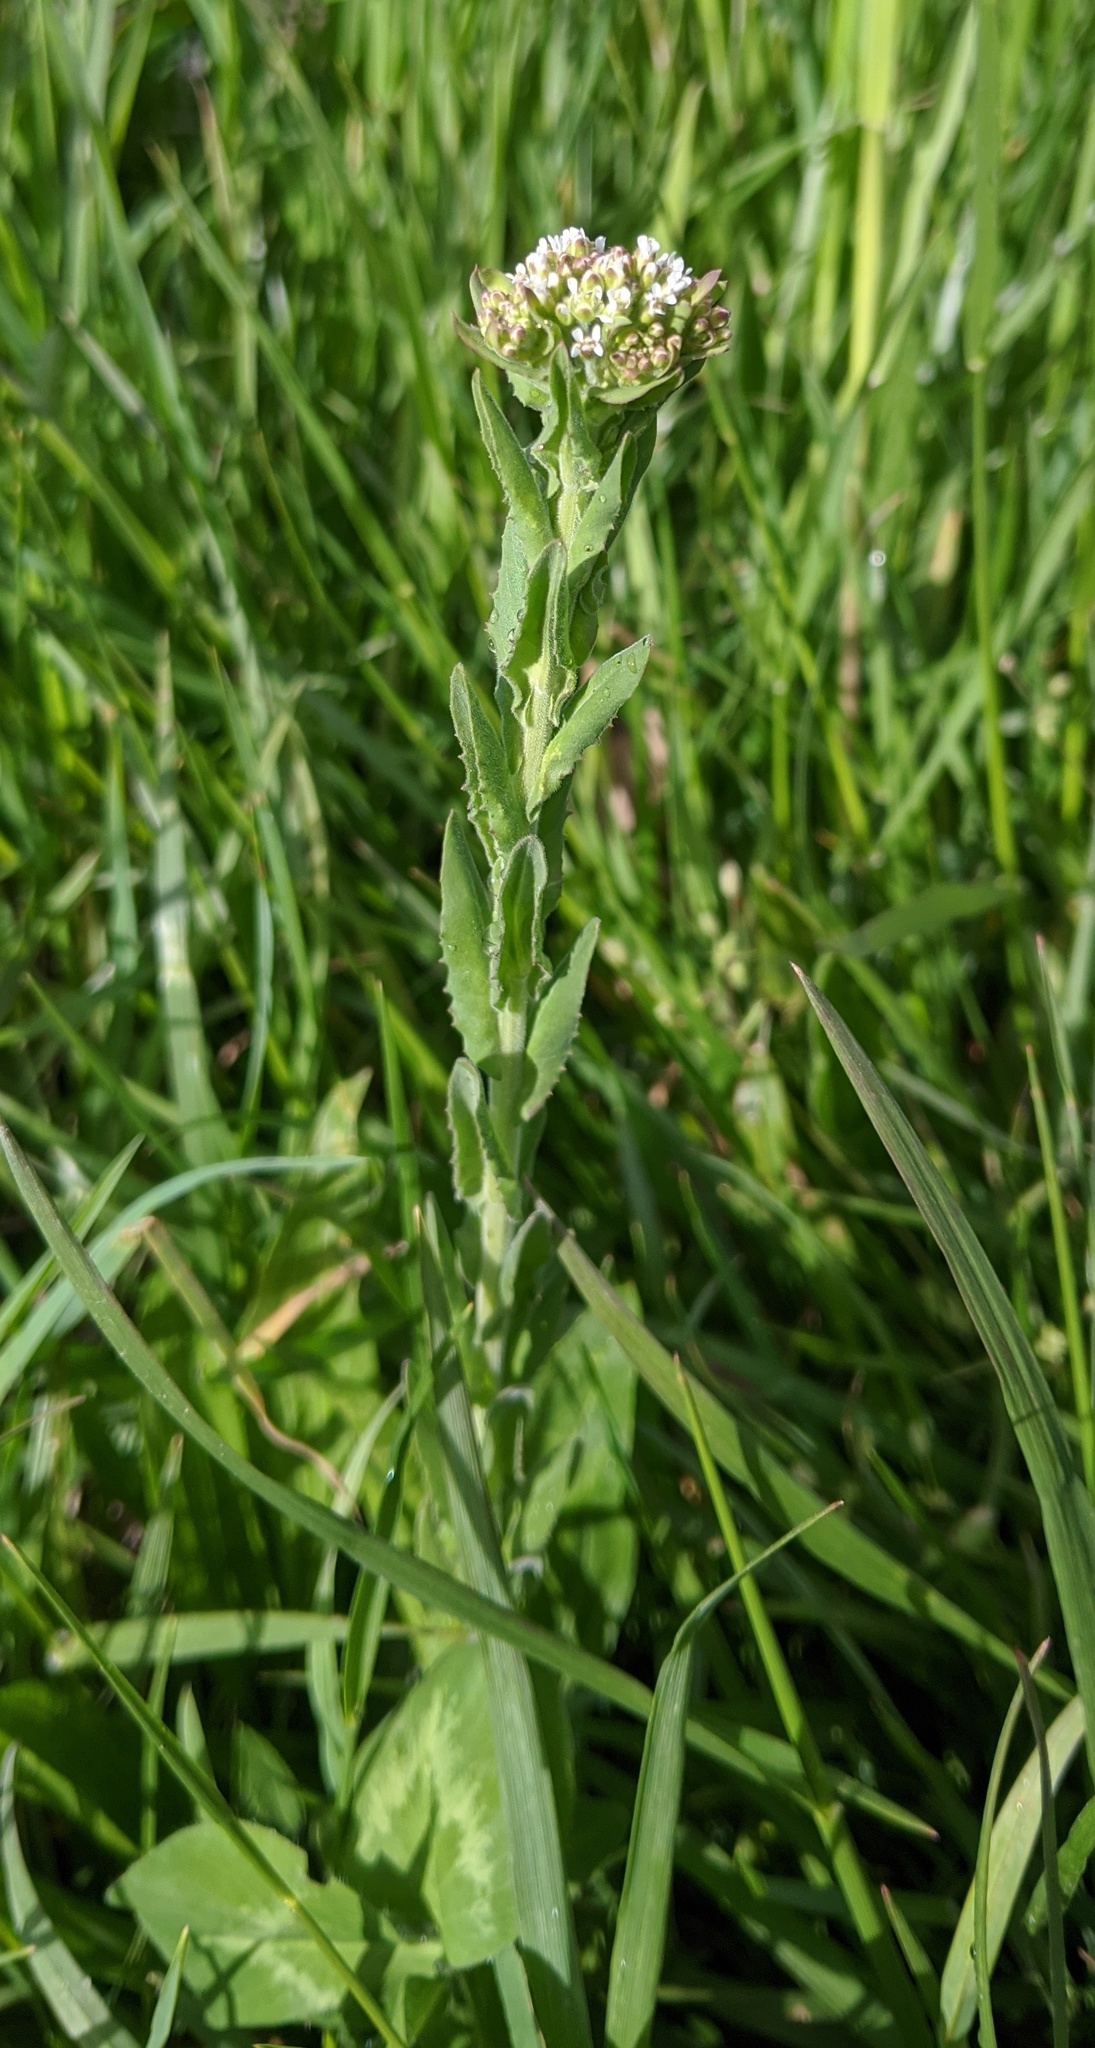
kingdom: Plantae
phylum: Tracheophyta
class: Magnoliopsida
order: Brassicales
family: Brassicaceae
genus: Lepidium
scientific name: Lepidium campestre
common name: Field pepperwort
